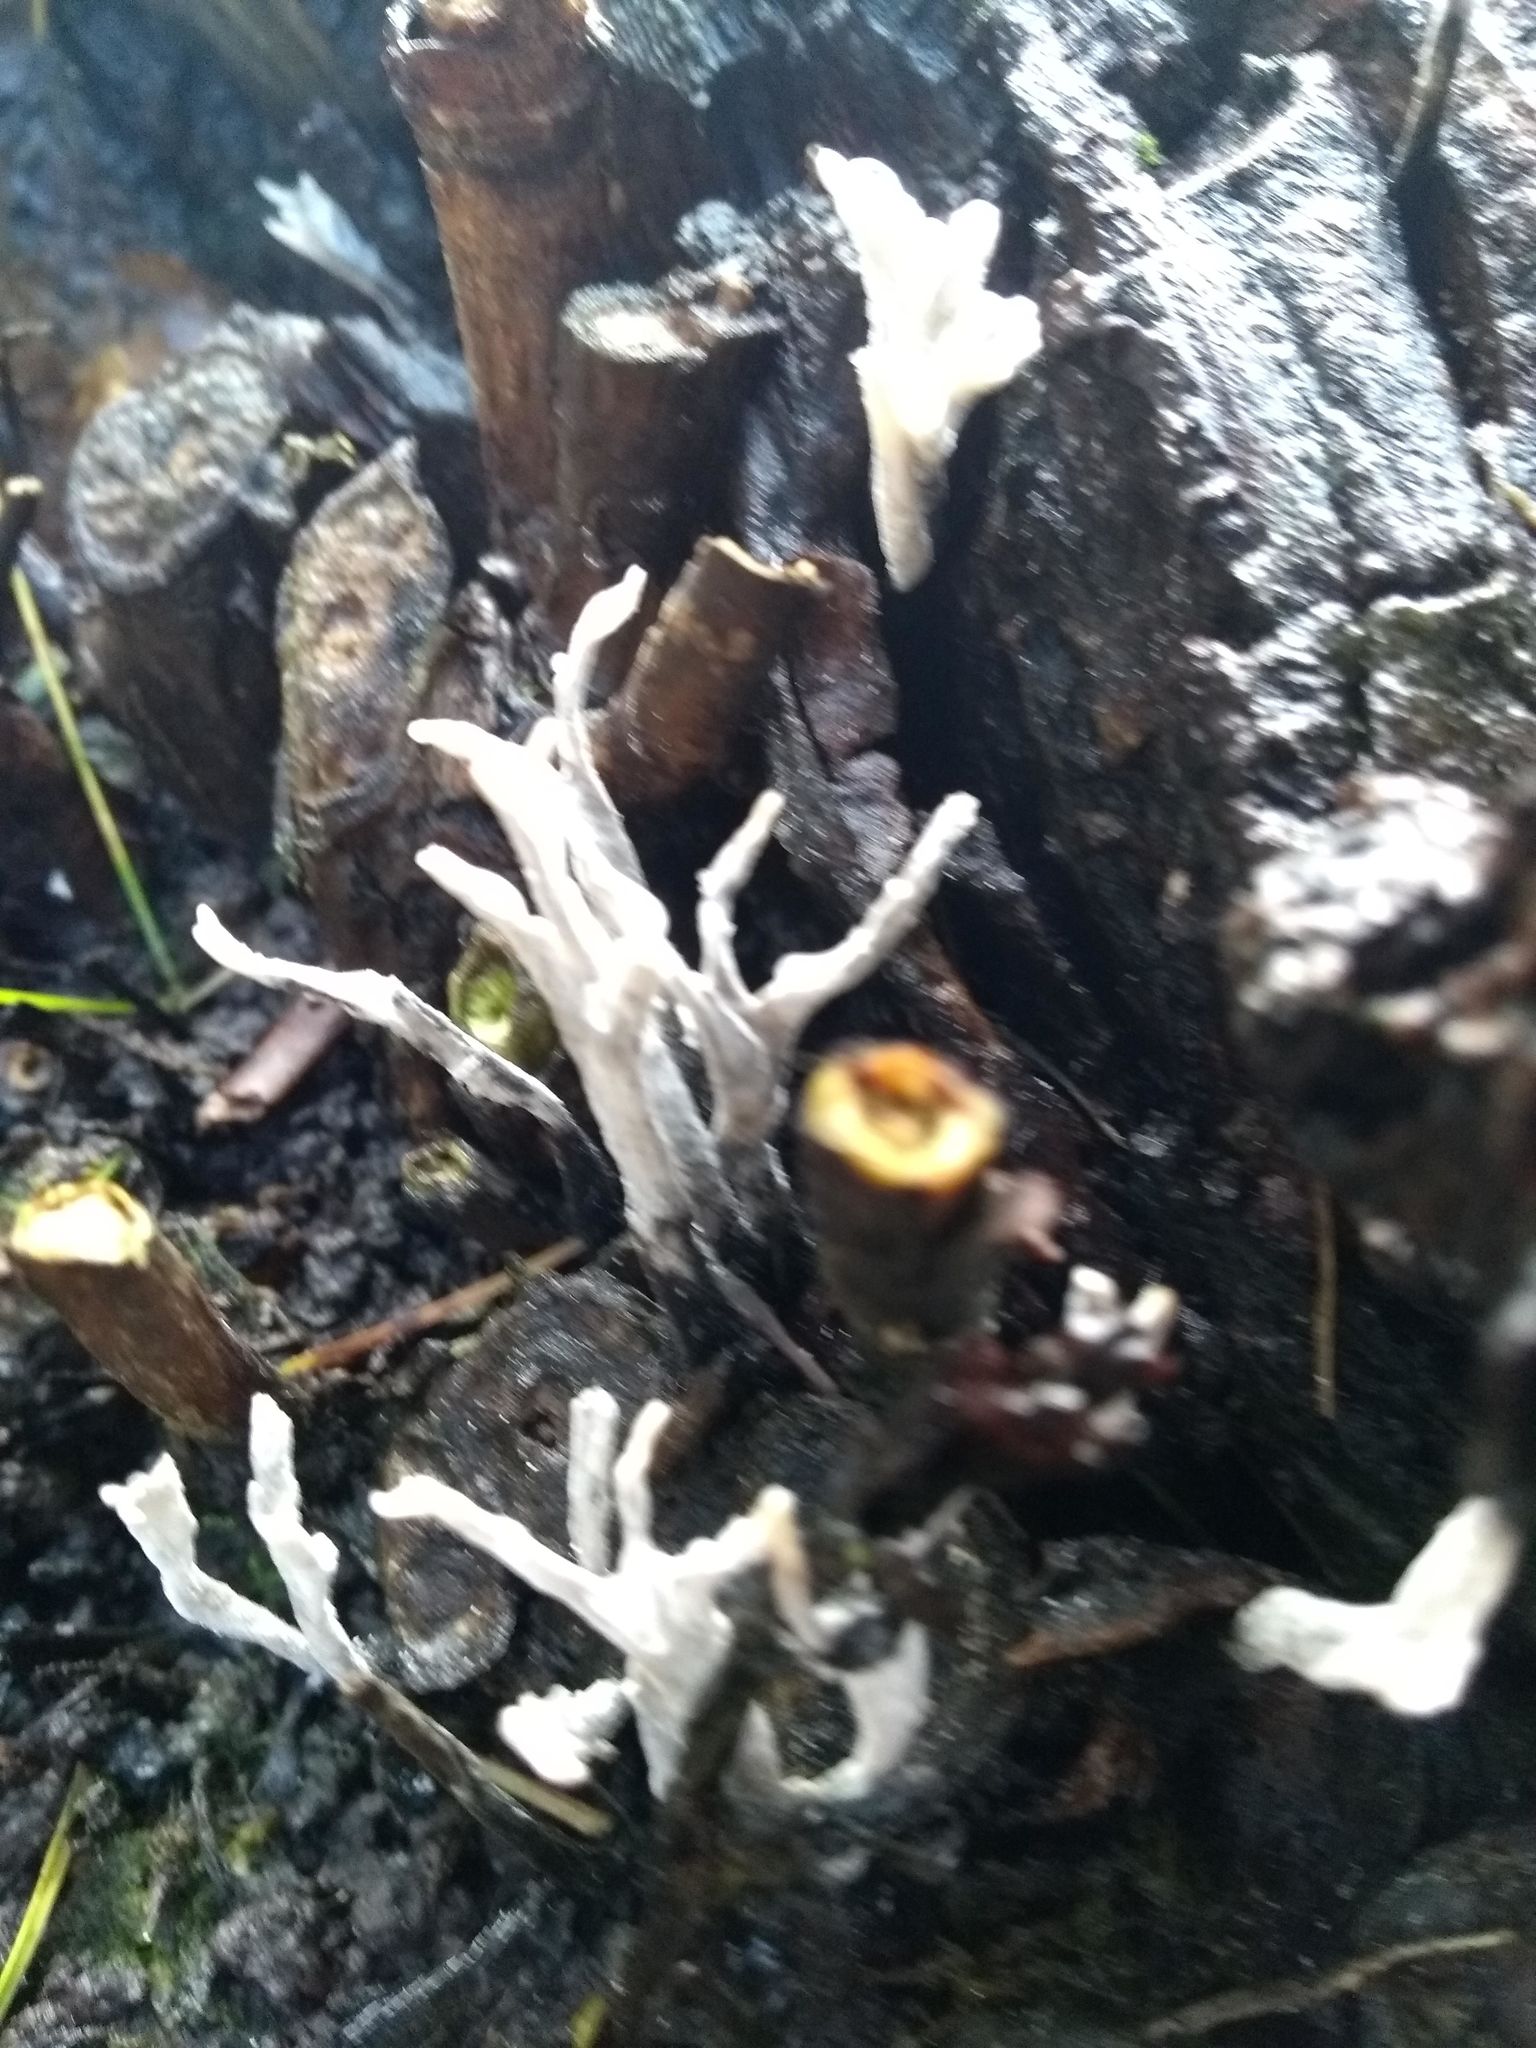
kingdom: Fungi
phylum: Ascomycota
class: Sordariomycetes
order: Xylariales
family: Xylariaceae
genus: Xylaria
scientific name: Xylaria hypoxylon
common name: Candle-snuff fungus
